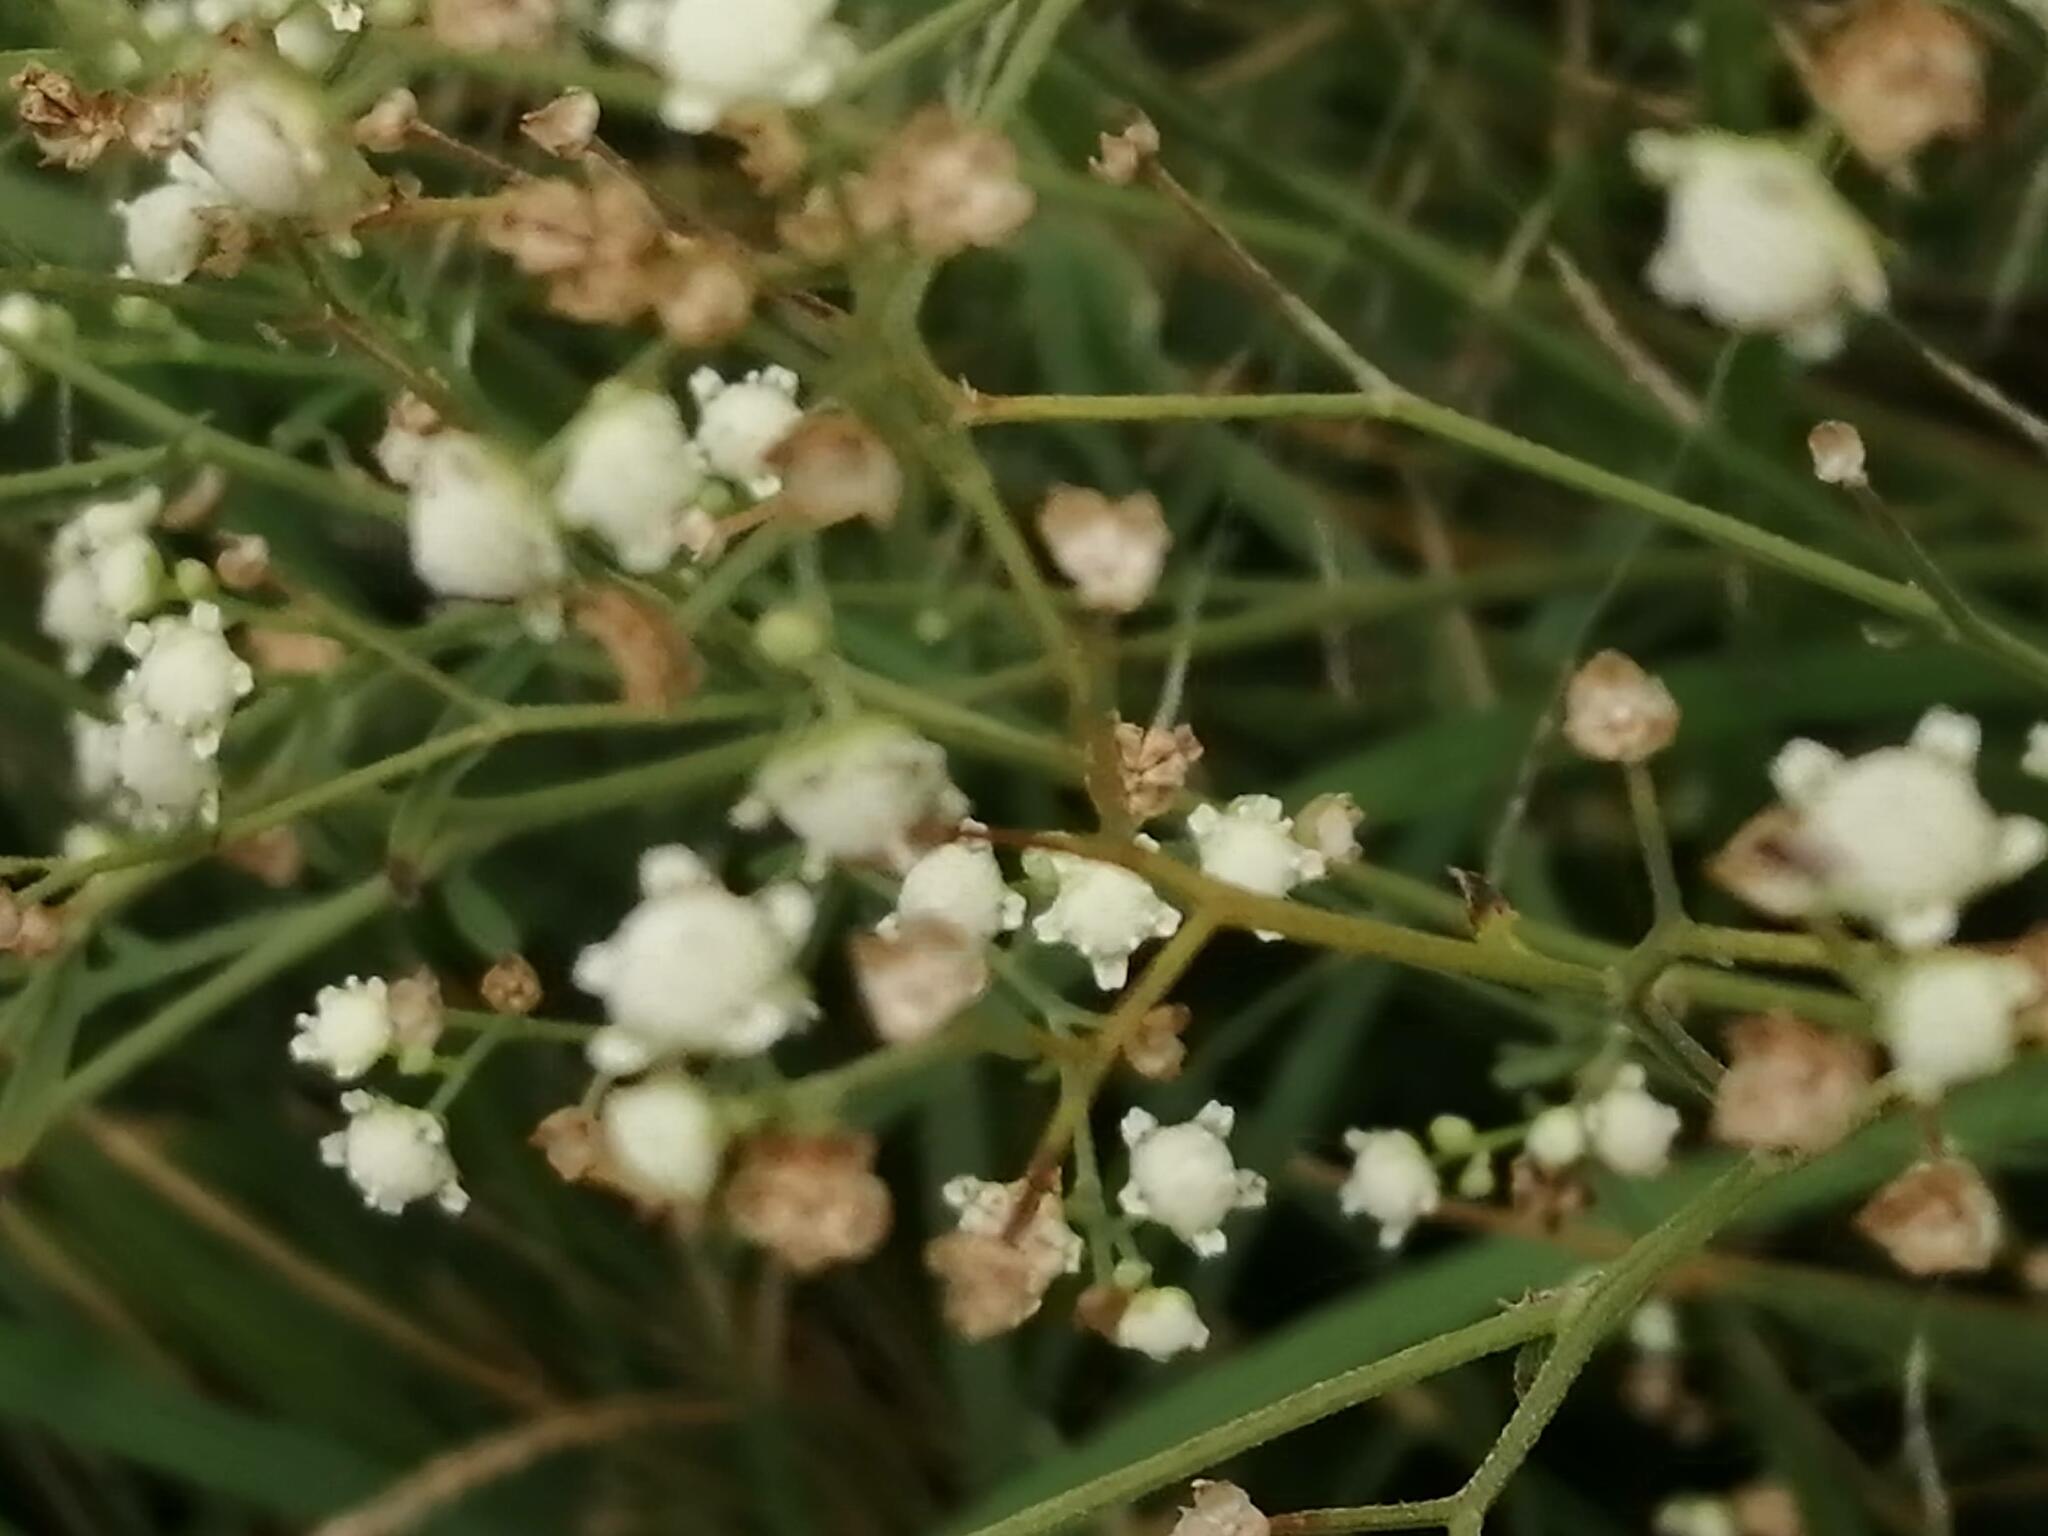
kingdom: Plantae
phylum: Tracheophyta
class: Magnoliopsida
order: Asterales
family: Asteraceae
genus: Parthenium
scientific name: Parthenium hysterophorus
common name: Santa maria feverfew
